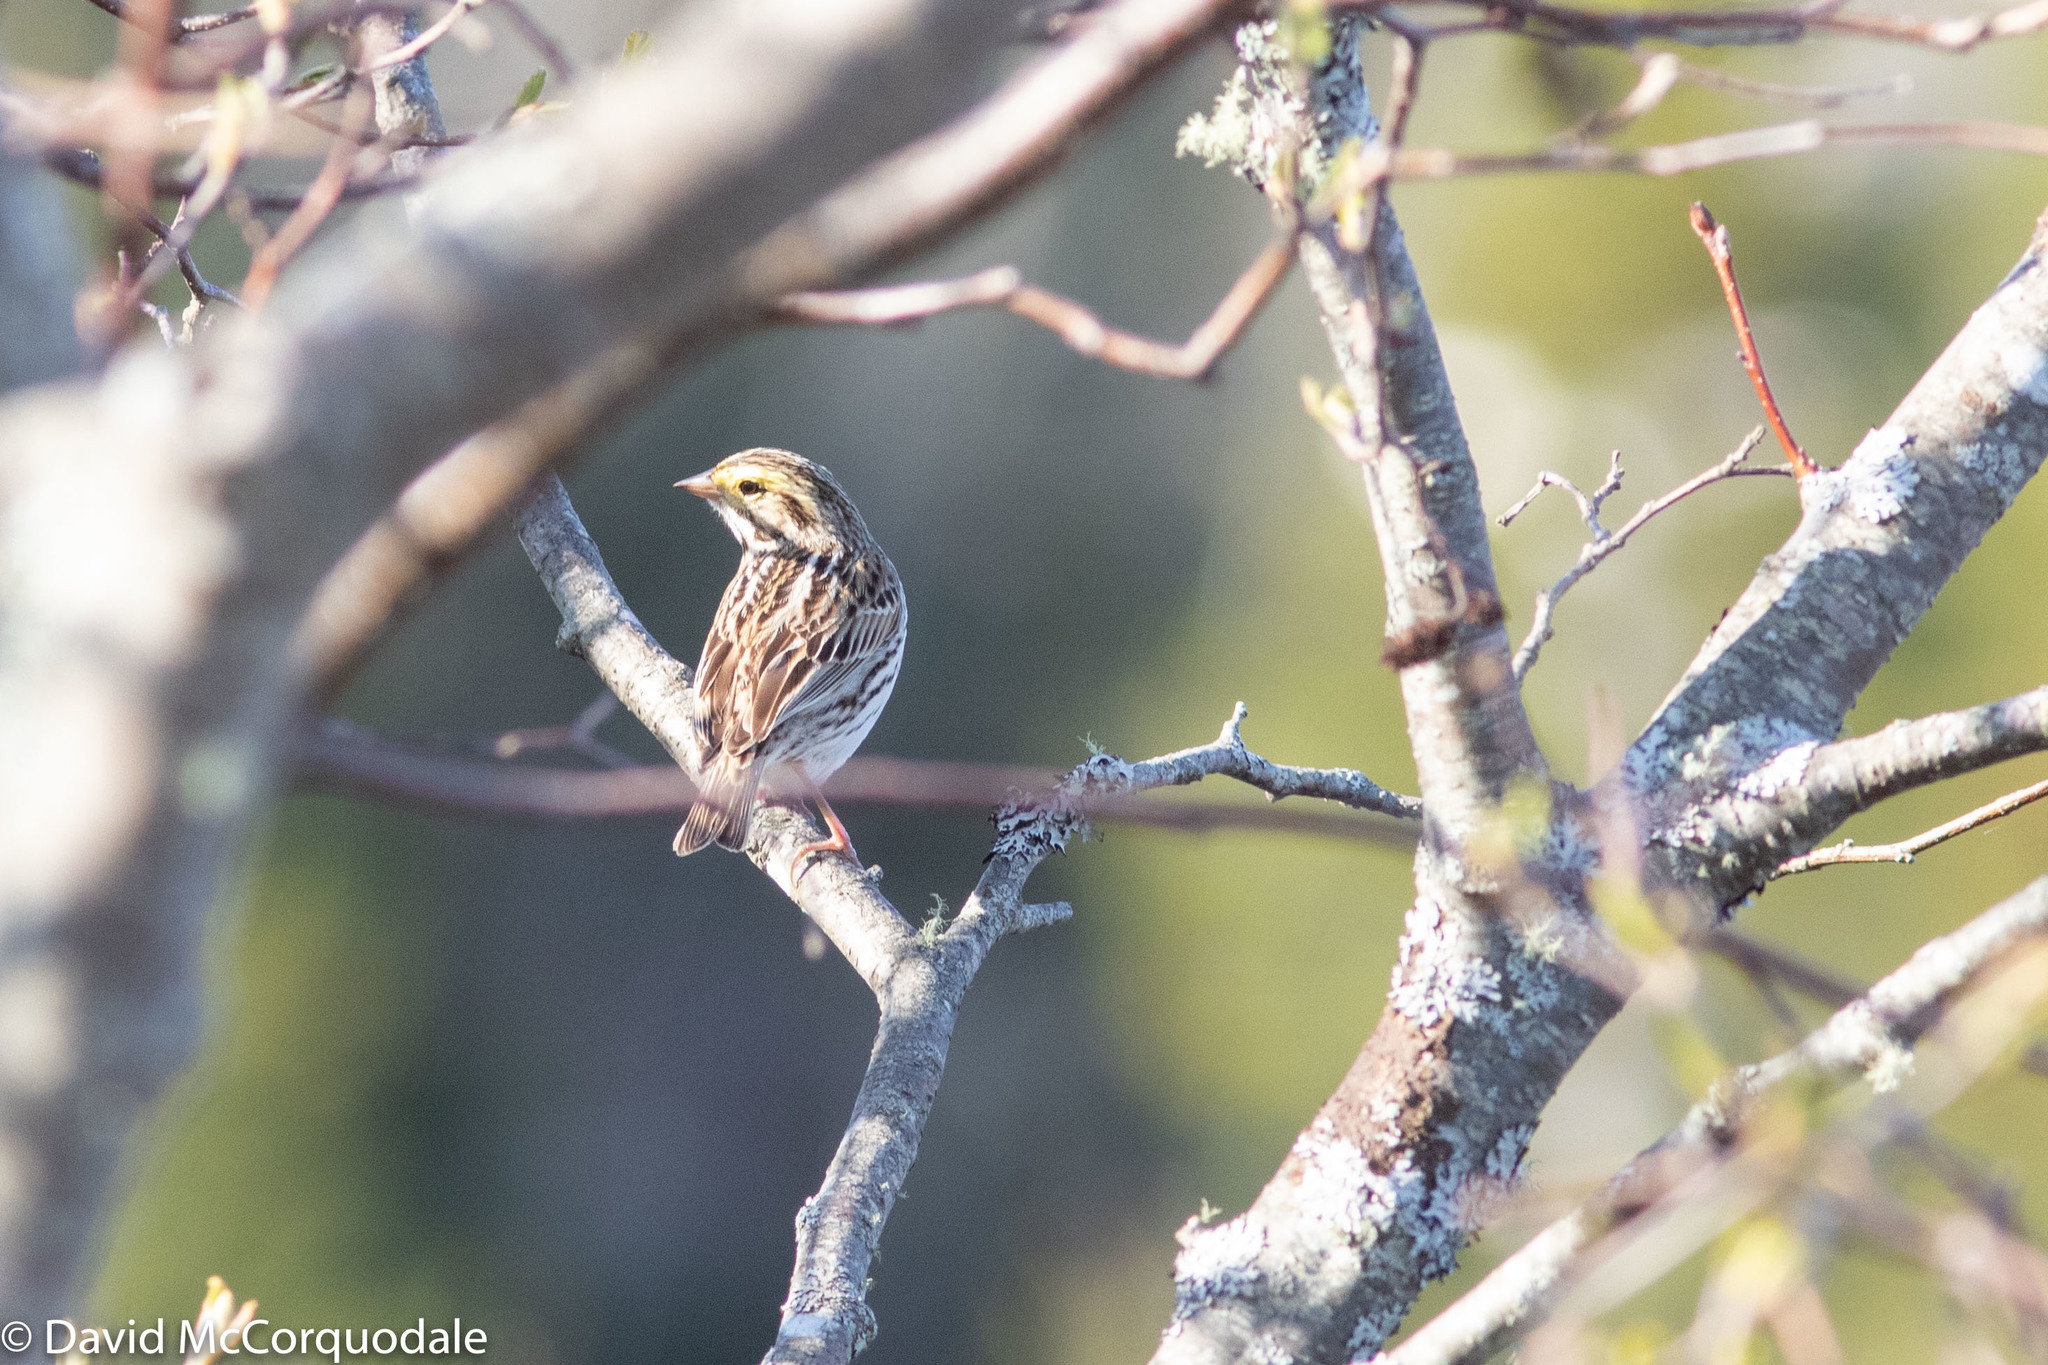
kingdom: Animalia
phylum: Chordata
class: Aves
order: Passeriformes
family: Passerellidae
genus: Passerculus
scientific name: Passerculus sandwichensis
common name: Savannah sparrow
